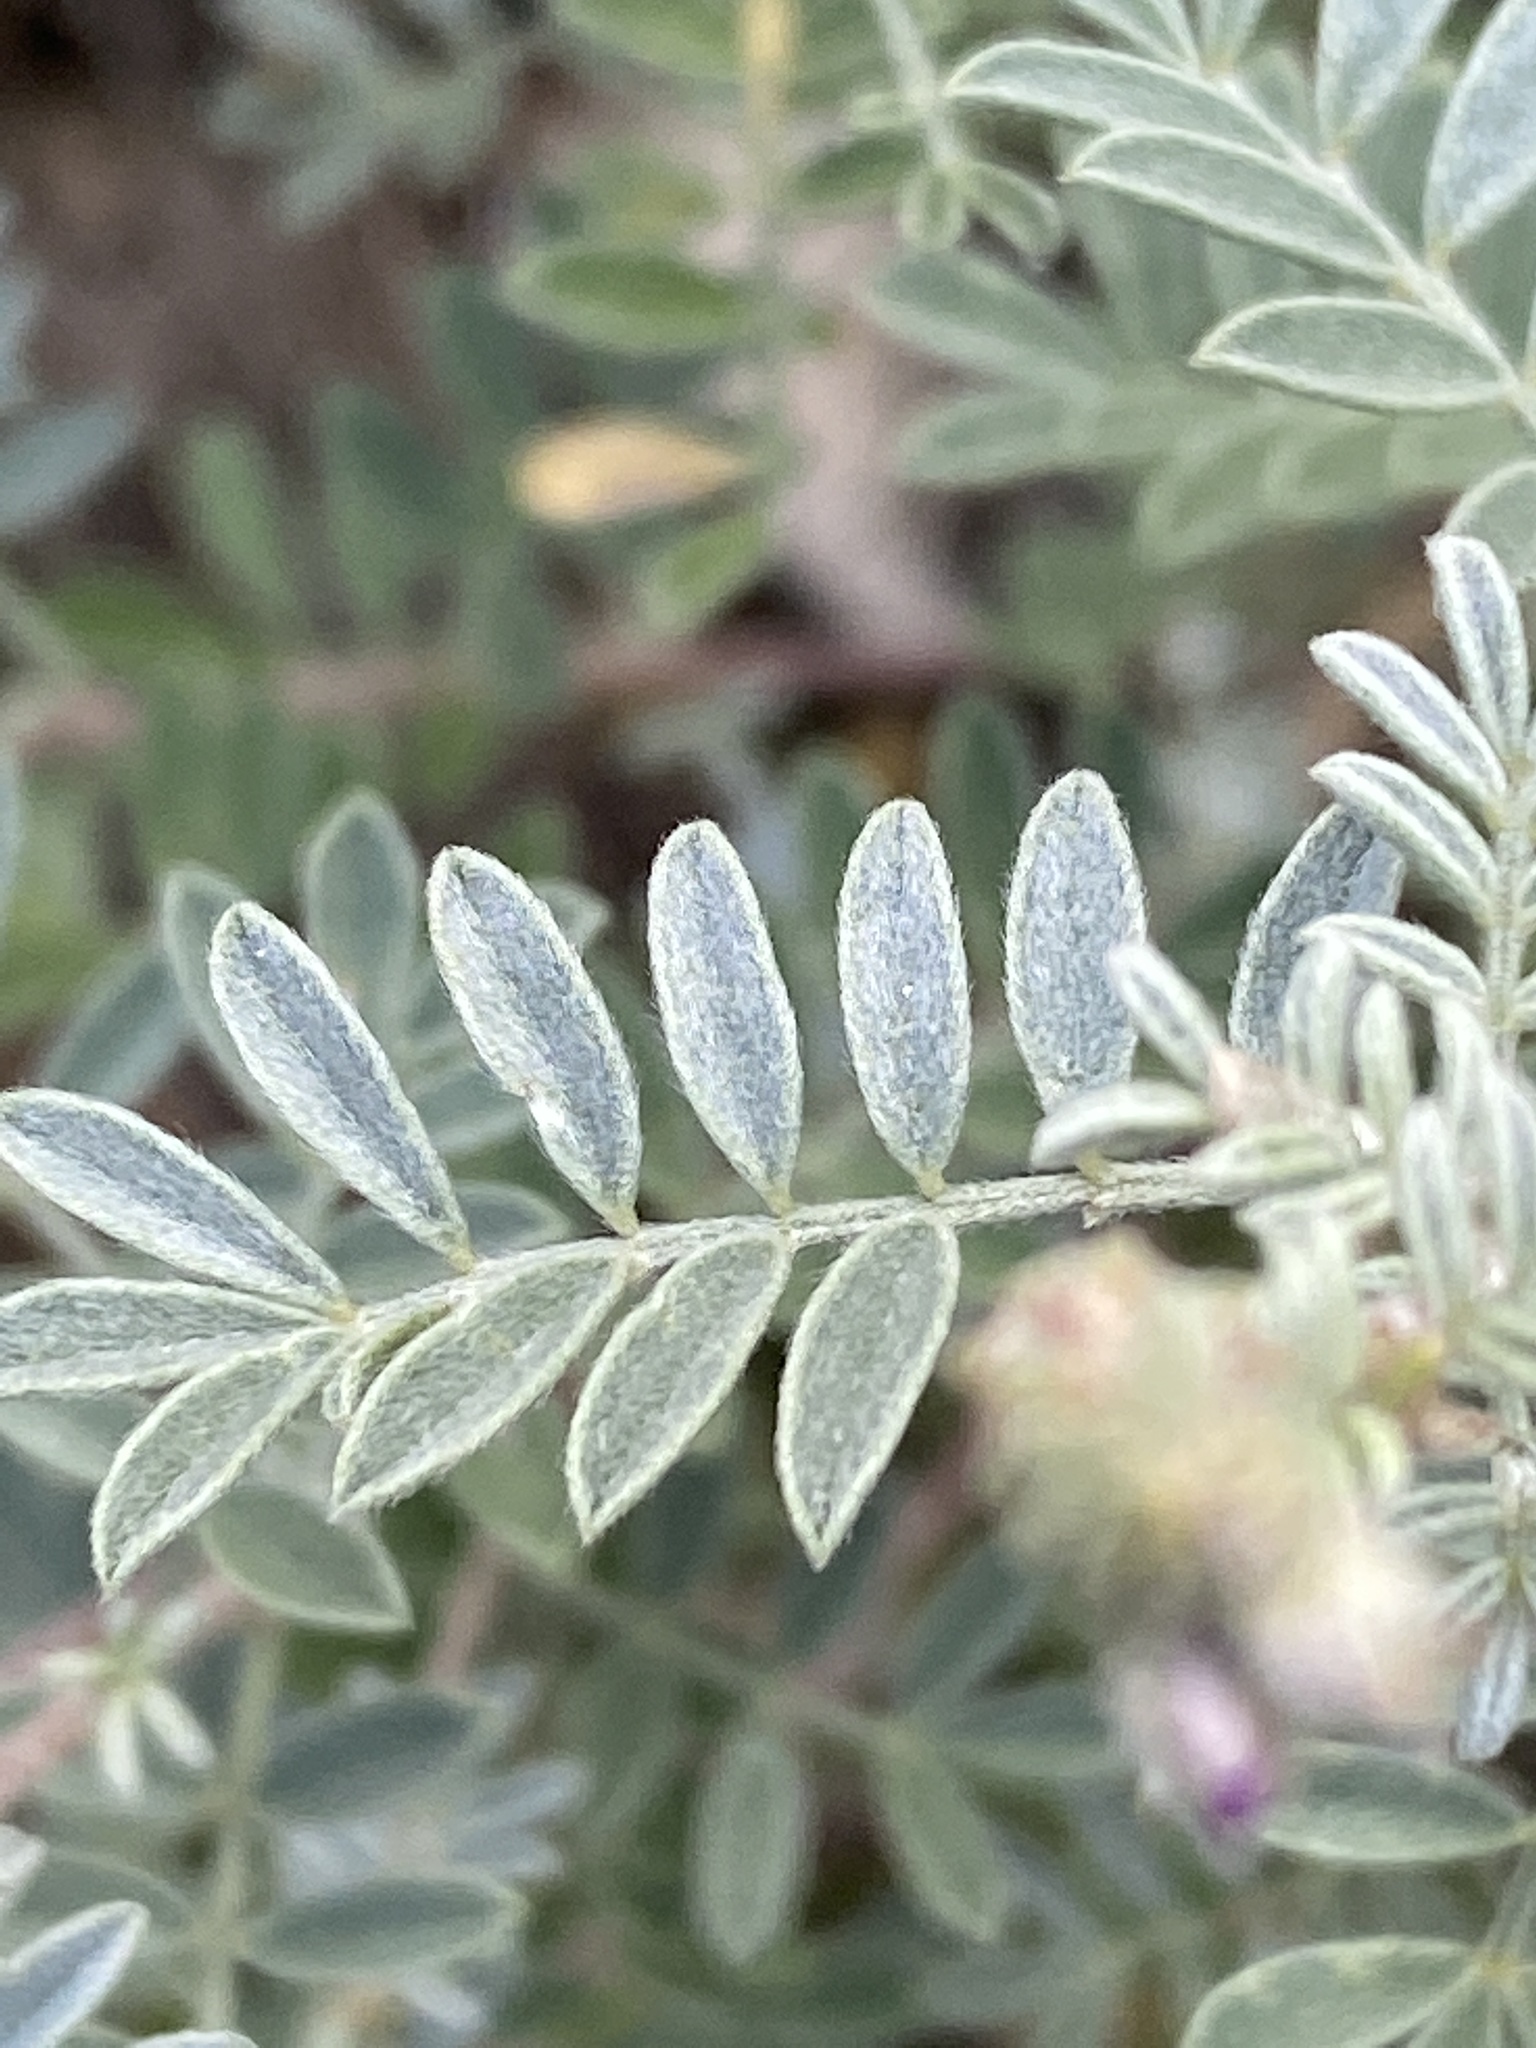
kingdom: Plantae
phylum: Tracheophyta
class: Magnoliopsida
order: Fabales
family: Fabaceae
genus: Dalea
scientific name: Dalea bicolor
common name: Silver prairie-clover
